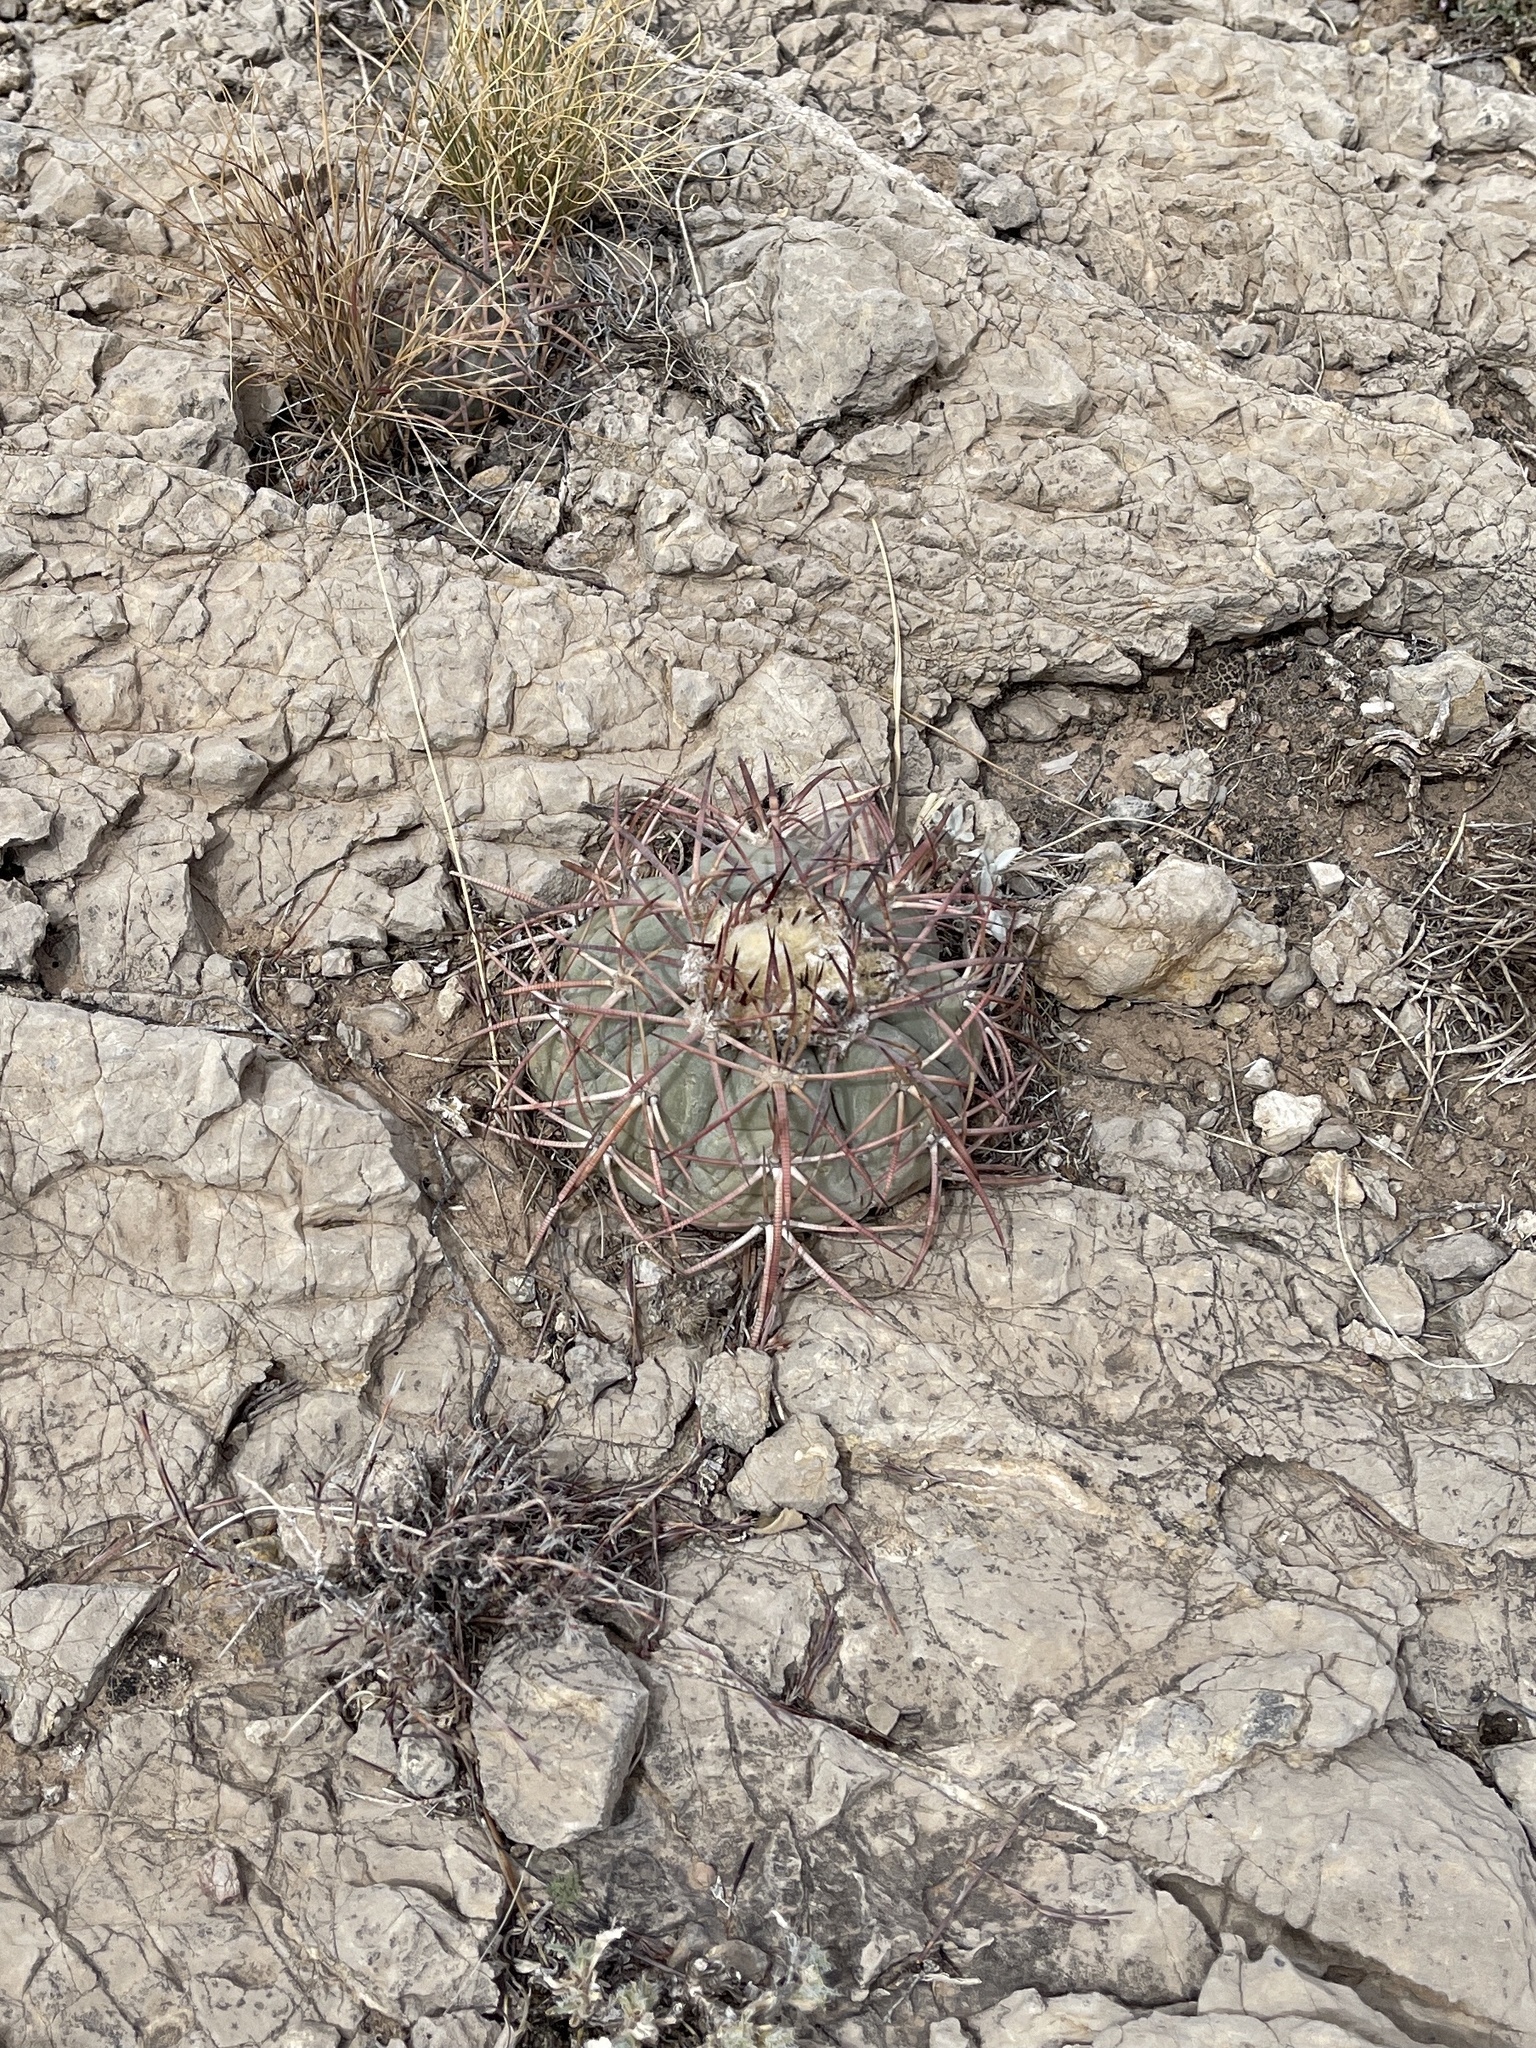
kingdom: Plantae
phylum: Tracheophyta
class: Magnoliopsida
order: Caryophyllales
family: Cactaceae
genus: Echinocactus
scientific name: Echinocactus horizonthalonius
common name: Devilshead
